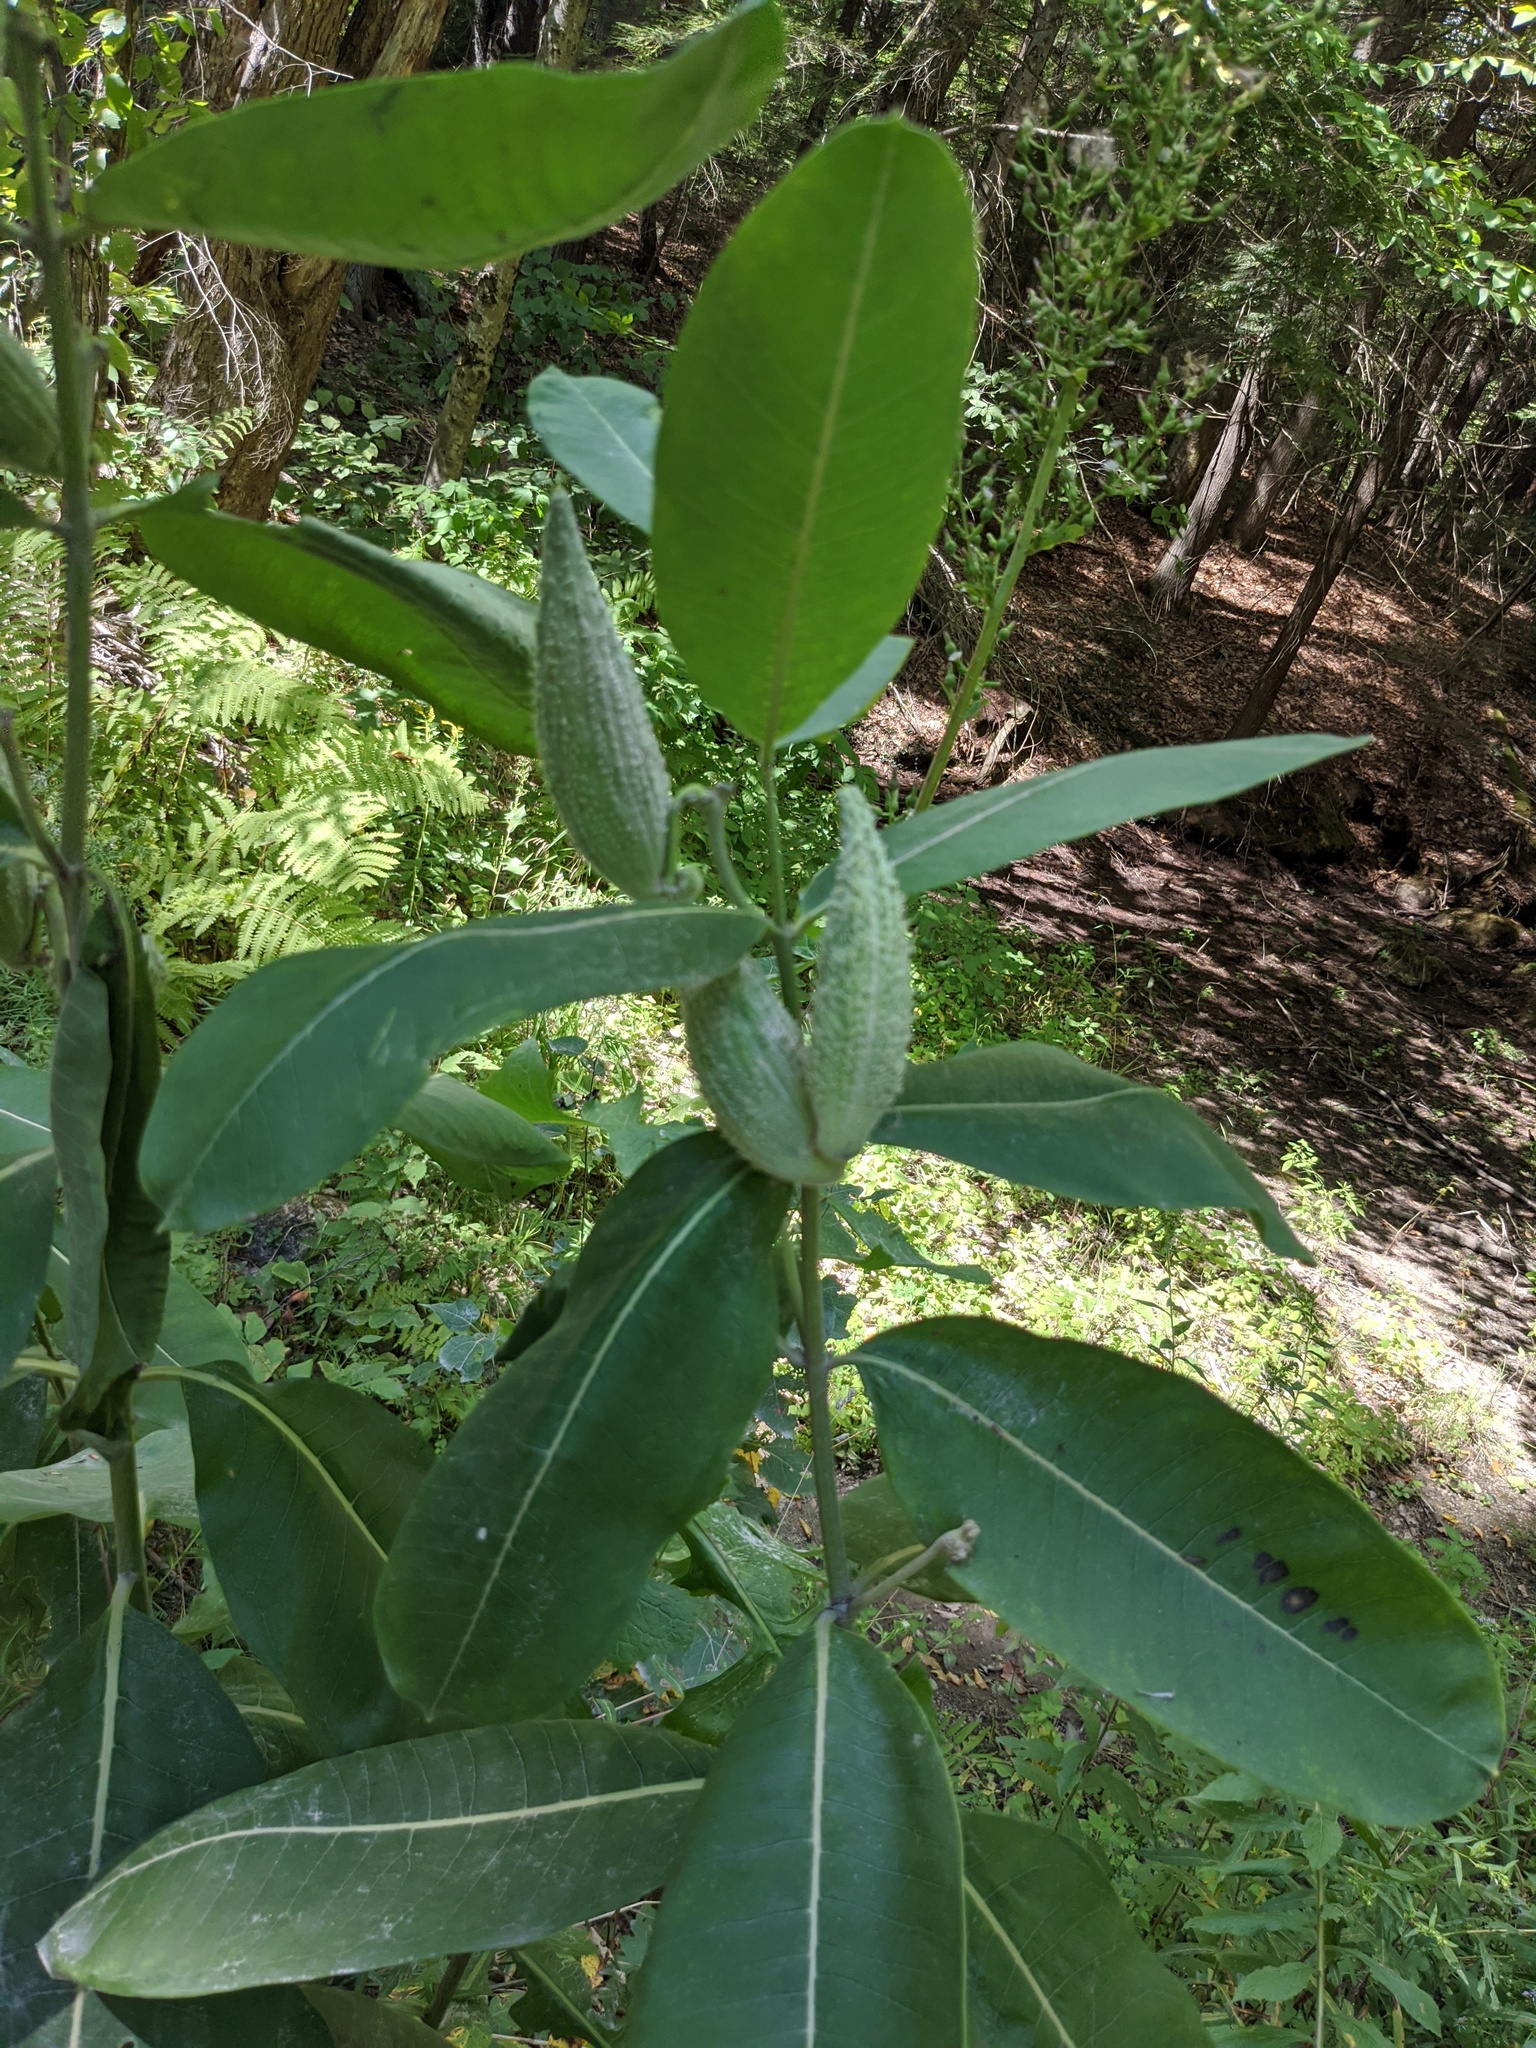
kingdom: Plantae
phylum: Tracheophyta
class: Magnoliopsida
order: Gentianales
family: Apocynaceae
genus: Asclepias
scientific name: Asclepias syriaca
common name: Common milkweed
